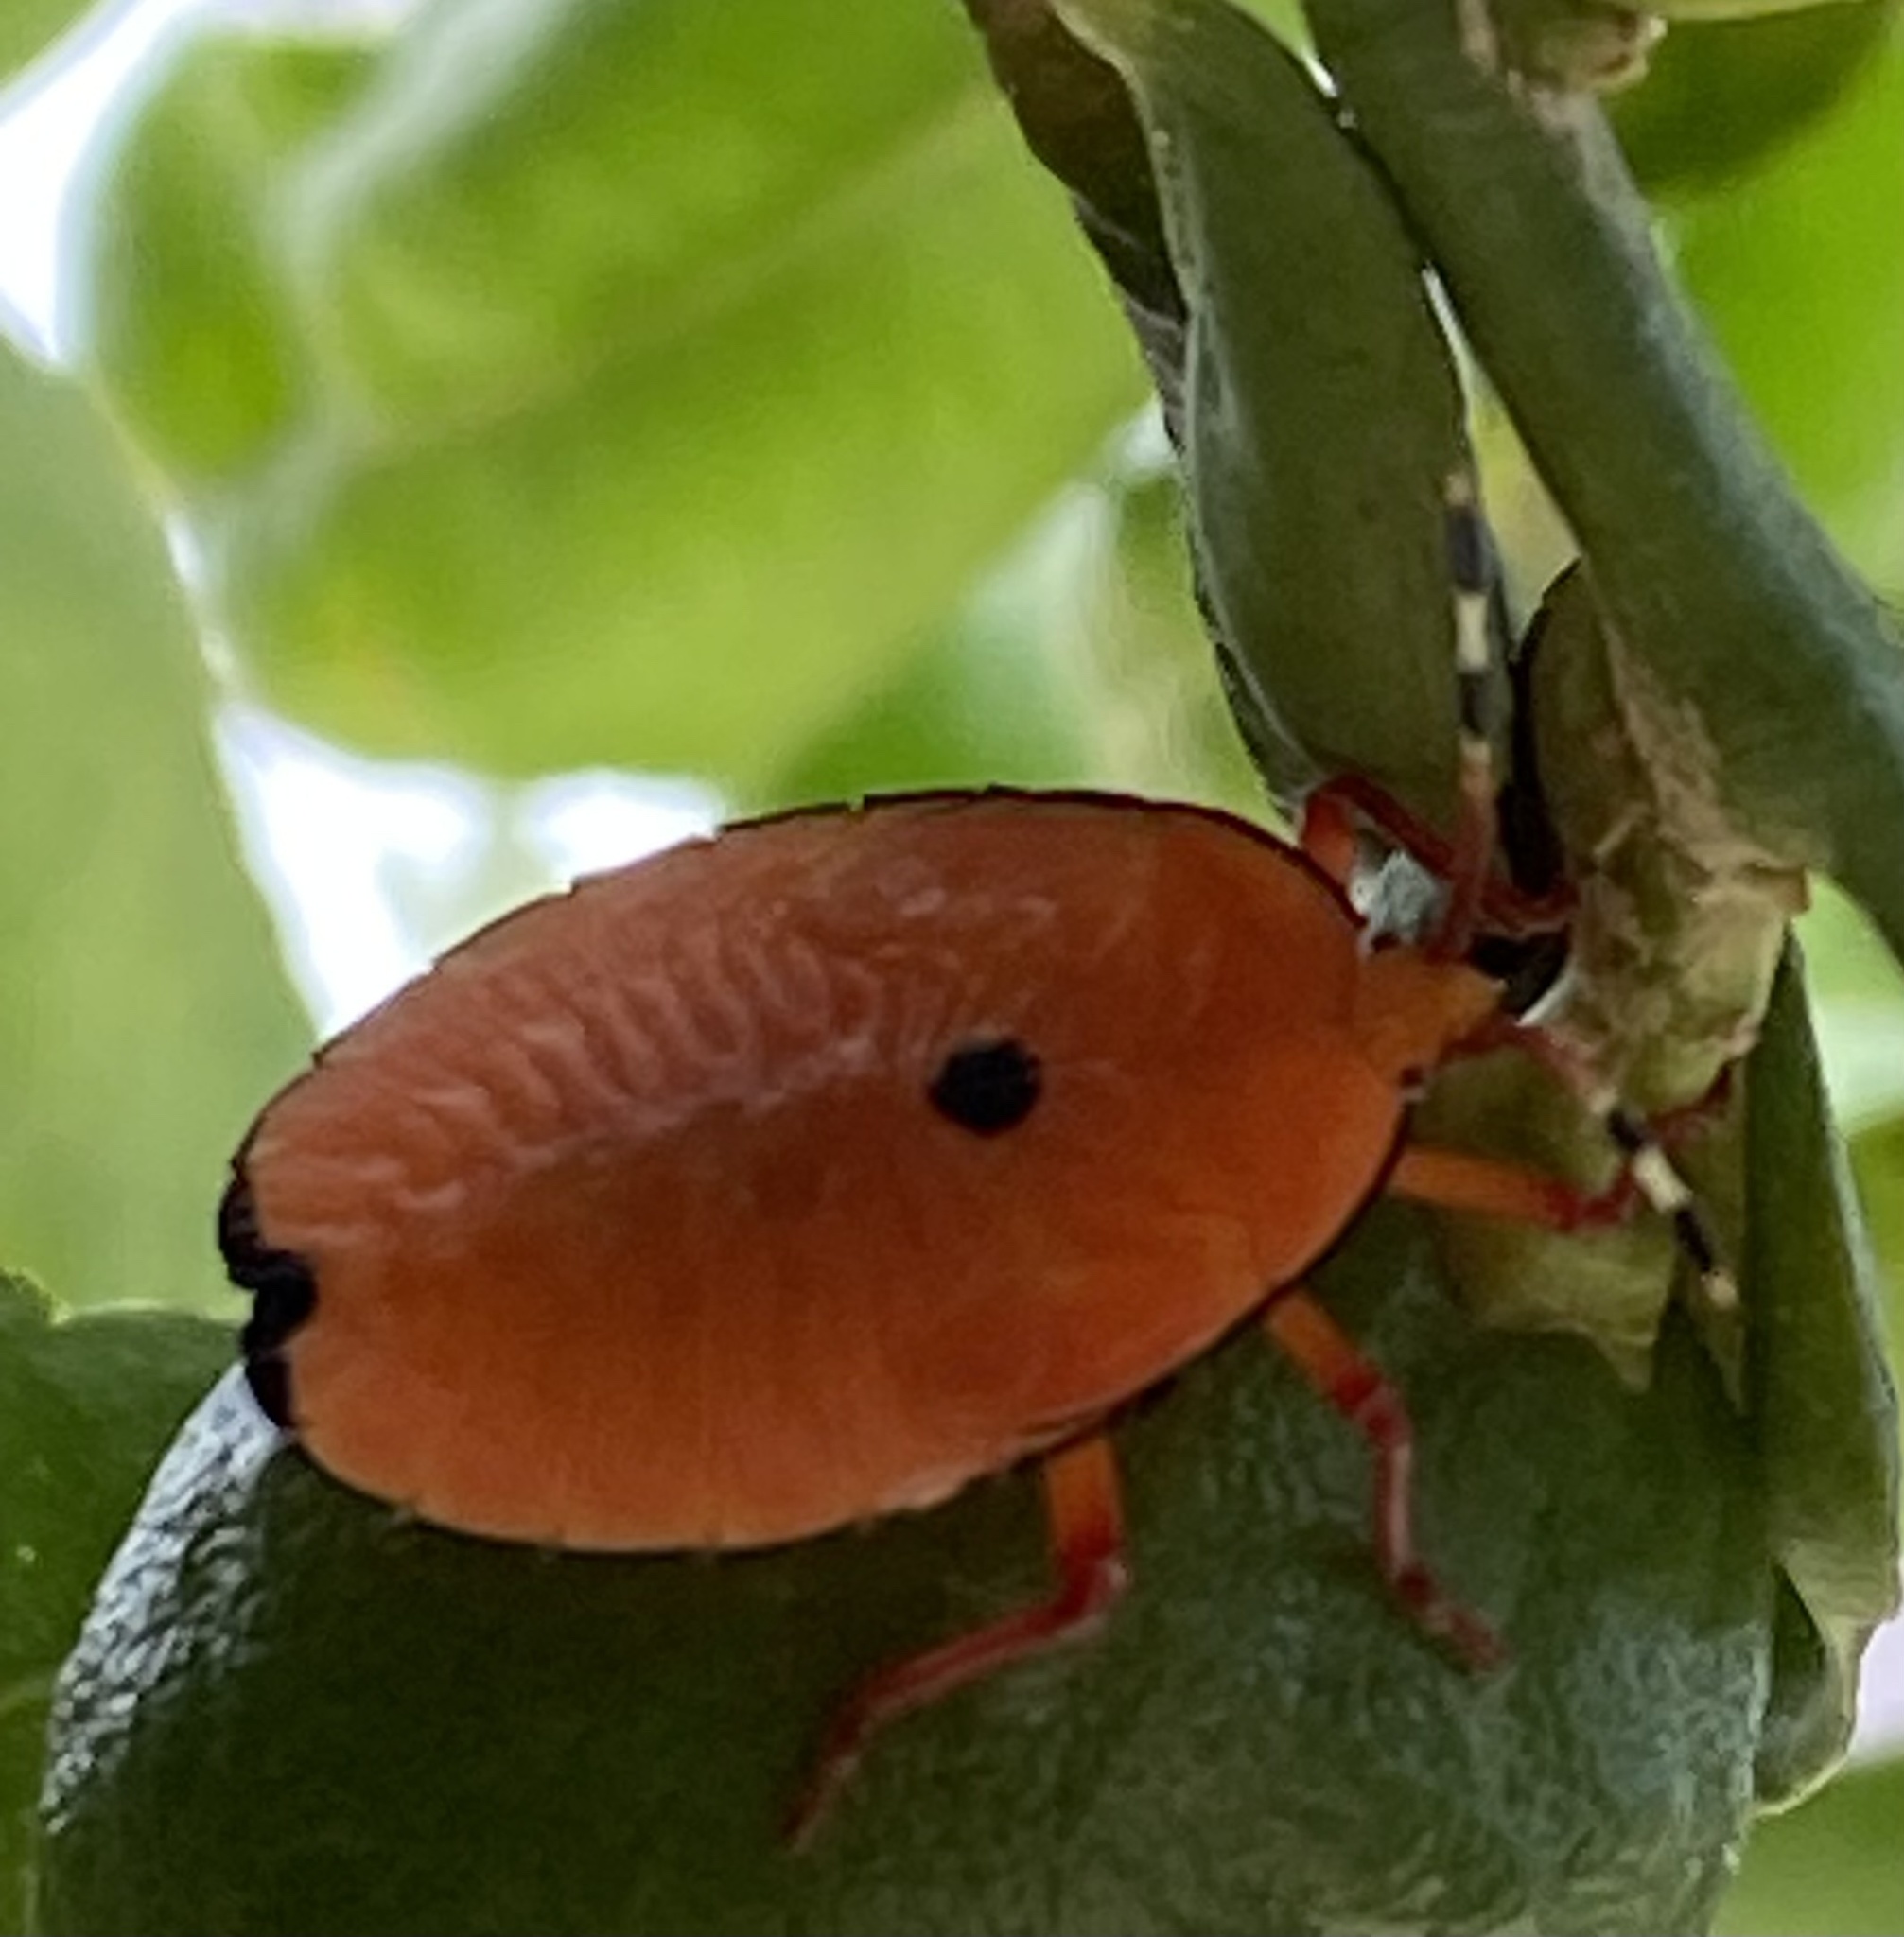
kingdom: Animalia
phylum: Arthropoda
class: Insecta
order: Hemiptera
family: Tessaratomidae
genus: Musgraveia
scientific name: Musgraveia sulciventris
